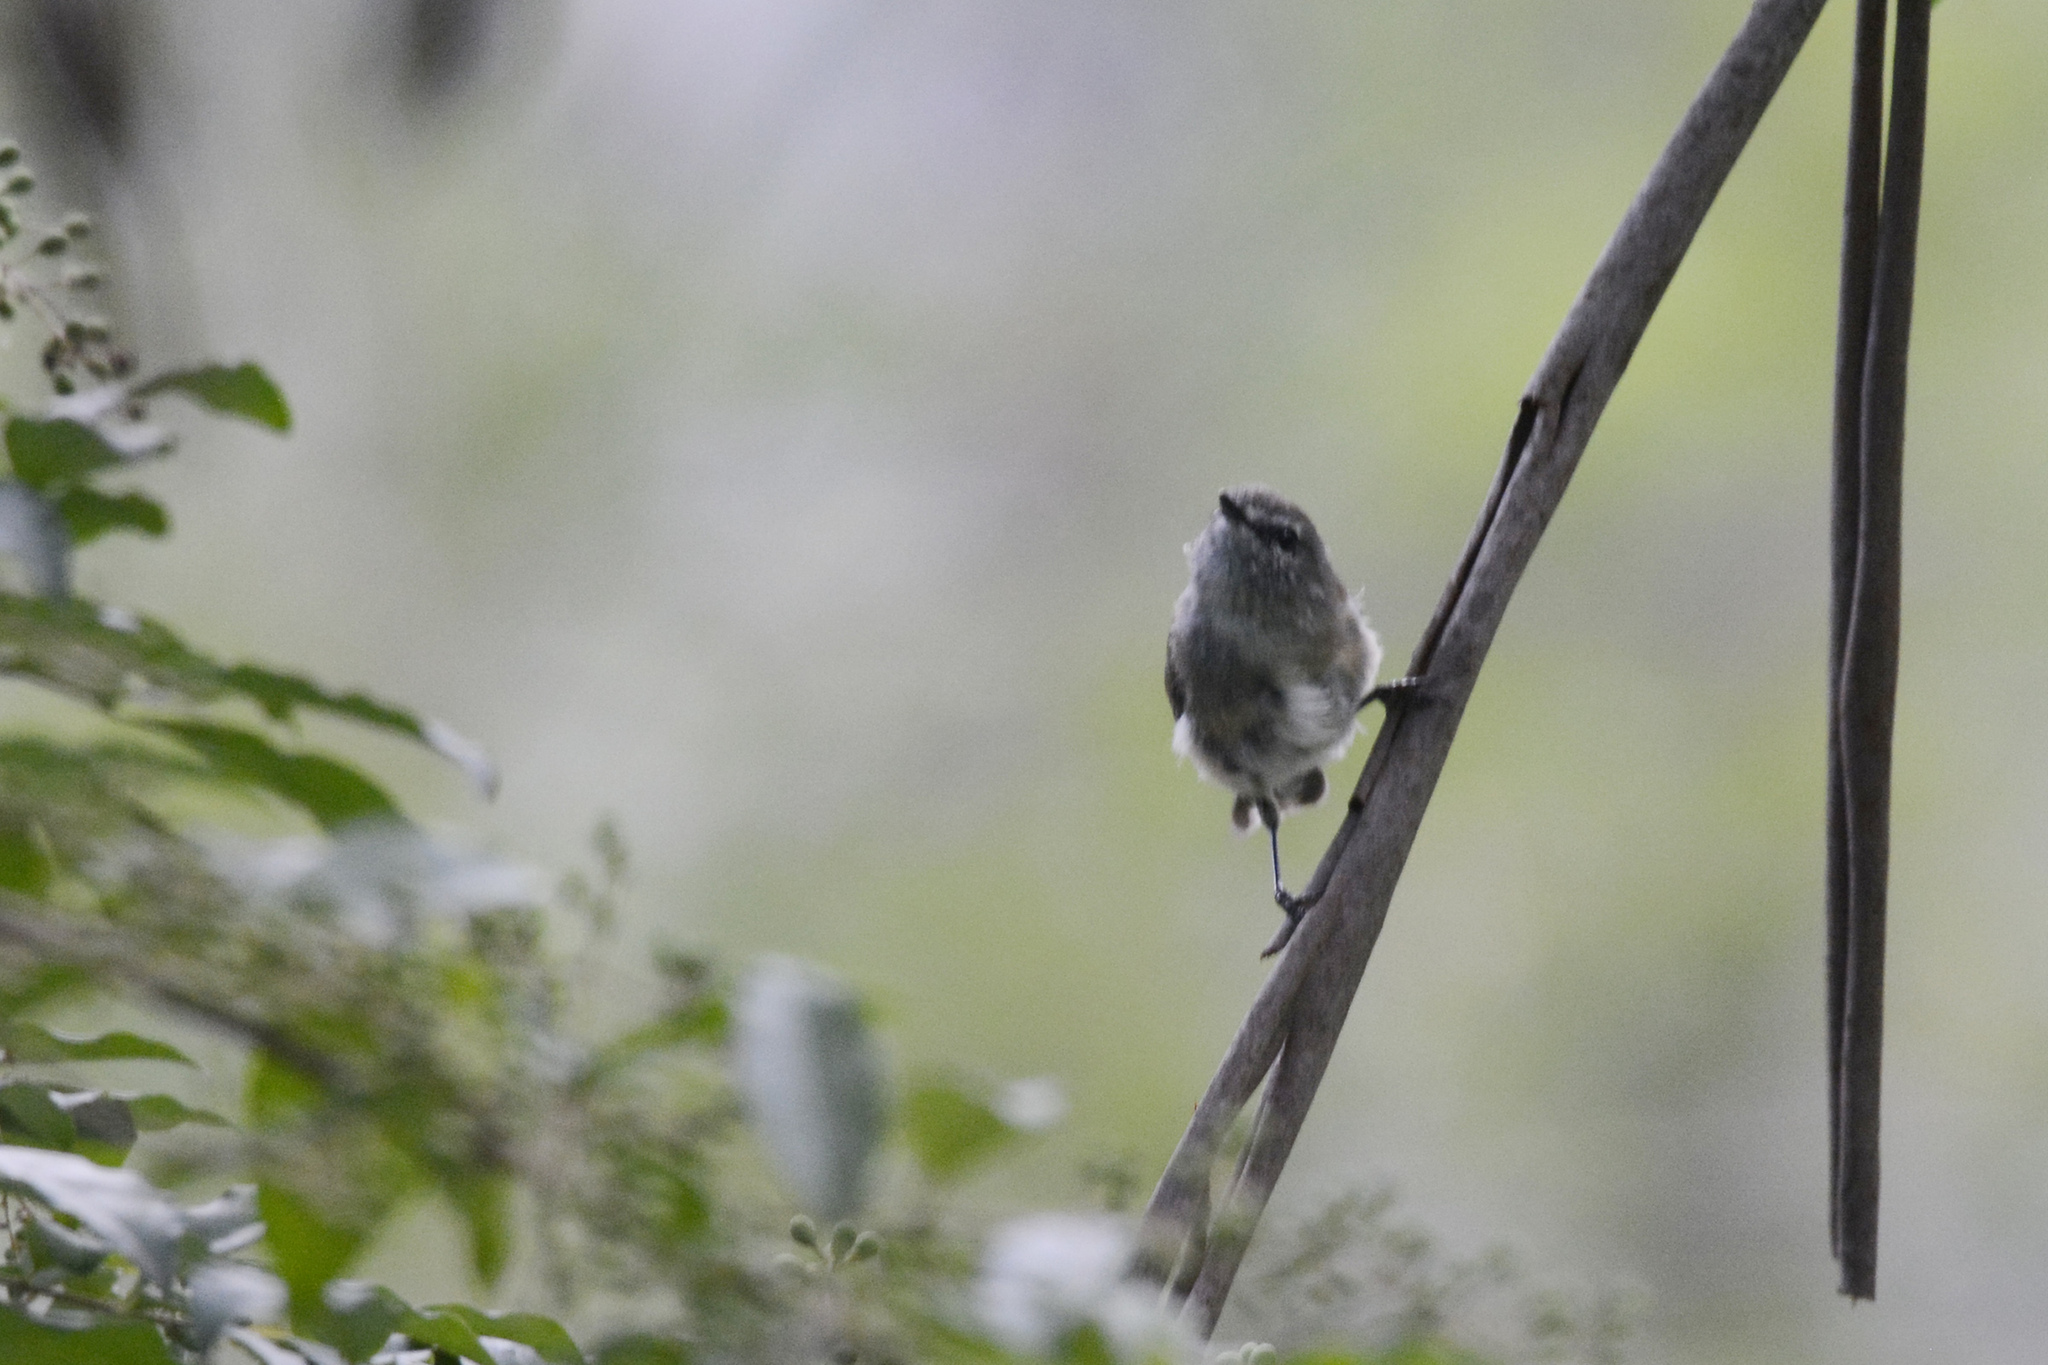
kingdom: Animalia
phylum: Chordata
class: Aves
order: Passeriformes
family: Acanthizidae
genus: Gerygone
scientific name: Gerygone mouki
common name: Brown gerygone
